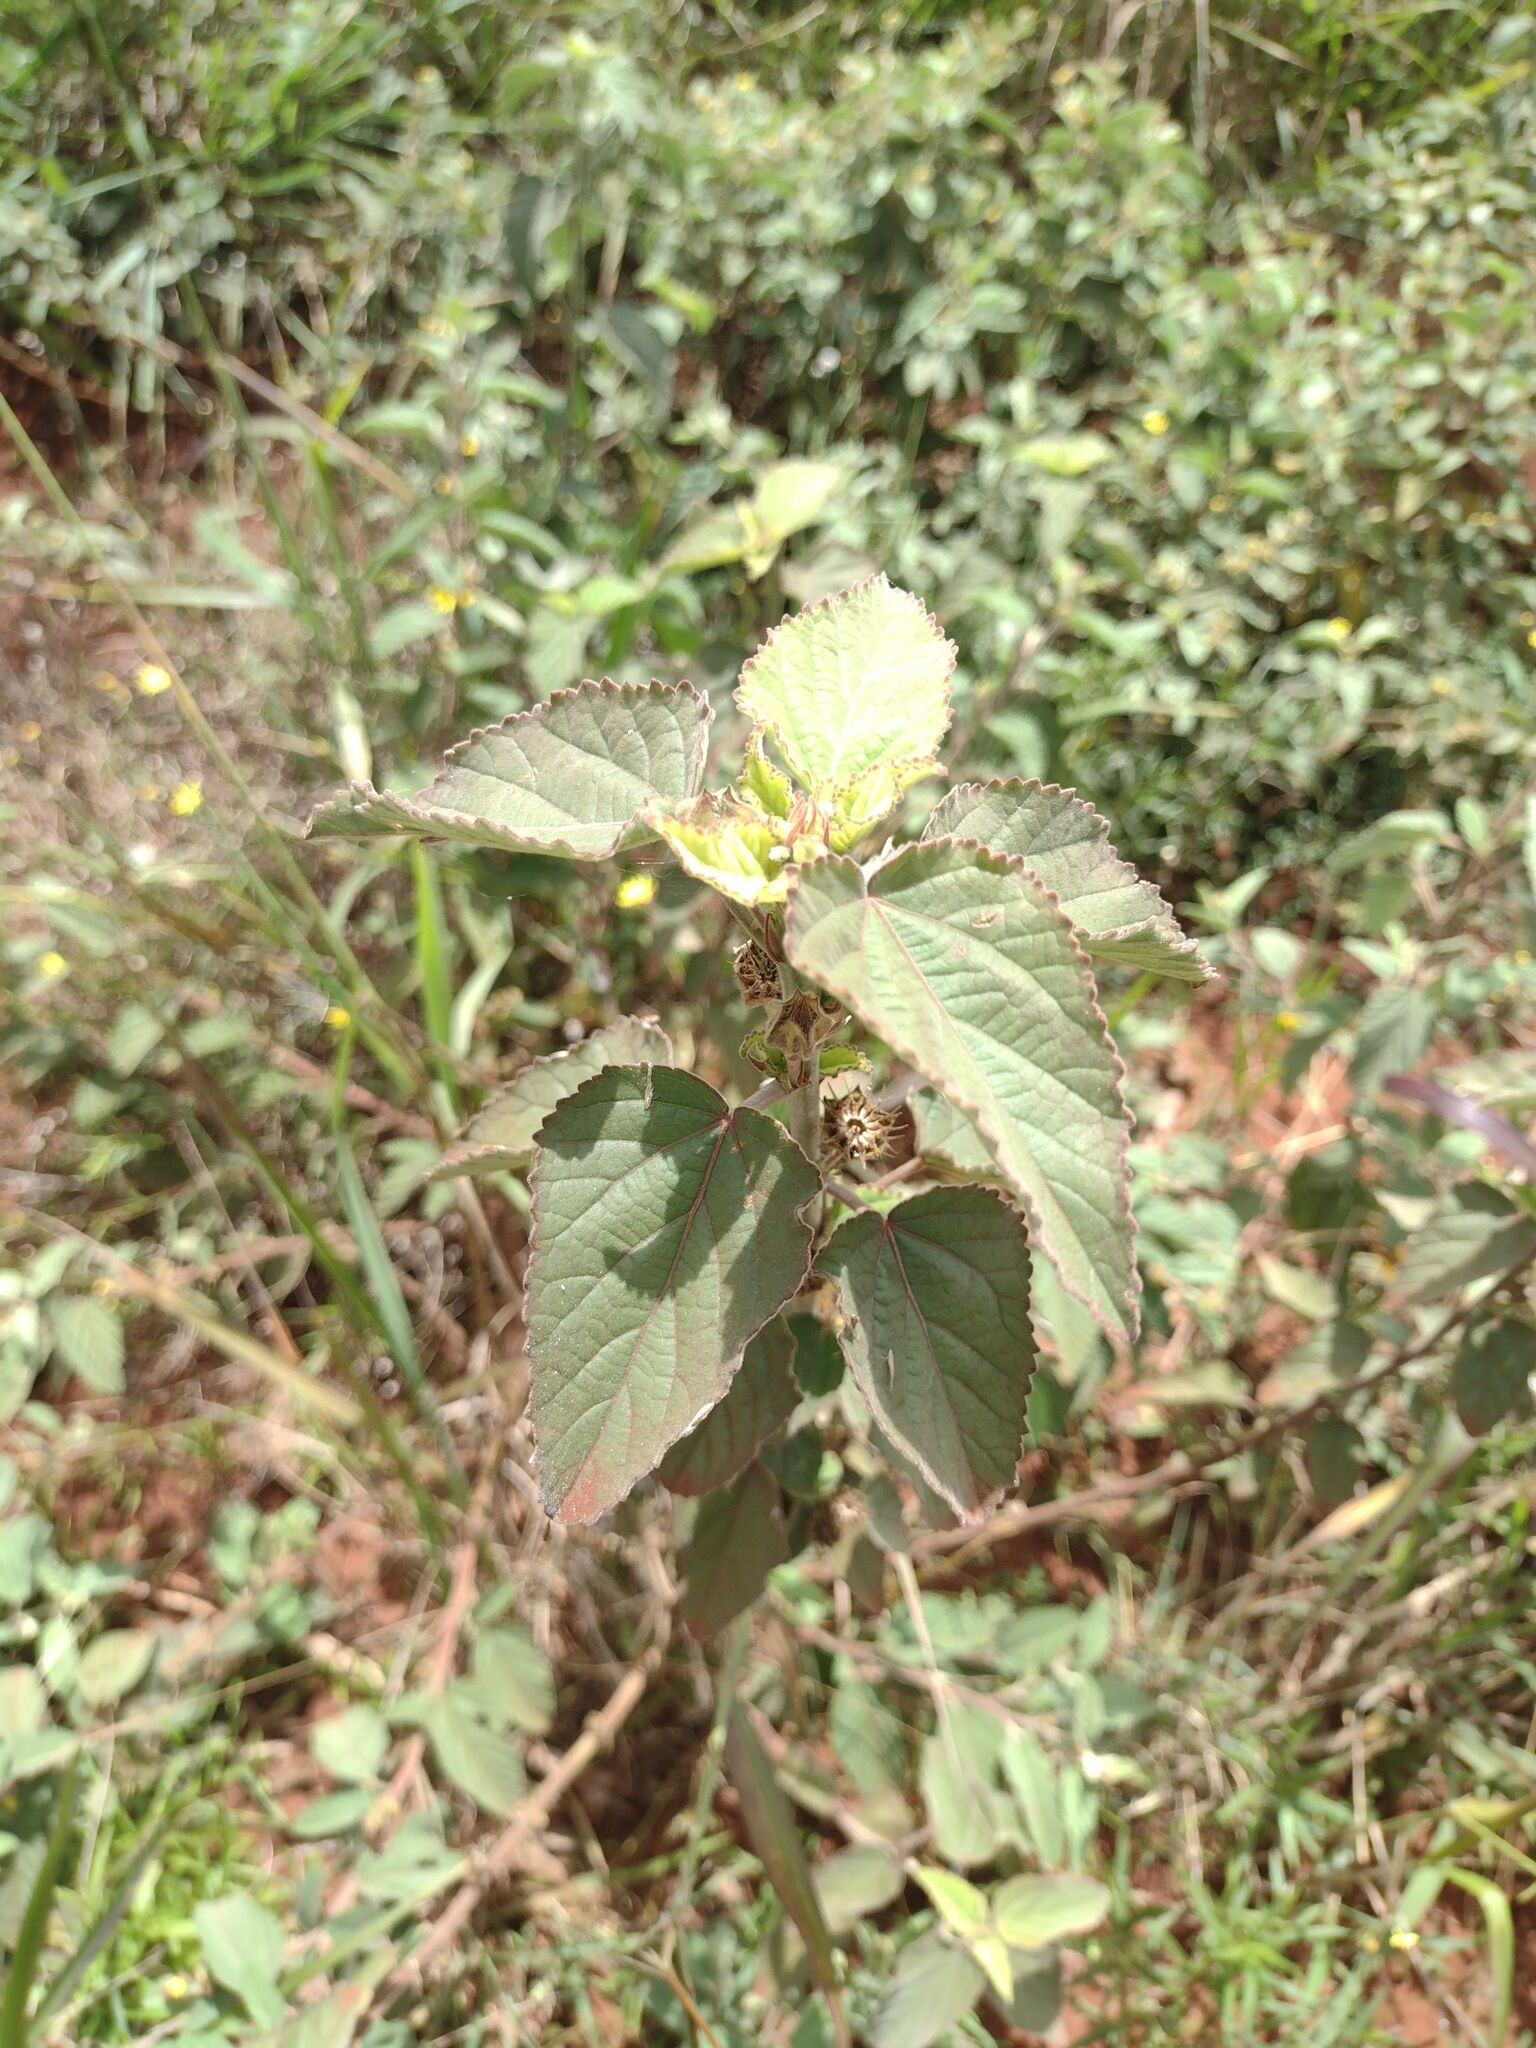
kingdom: Plantae
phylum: Tracheophyta
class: Magnoliopsida
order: Malvales
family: Malvaceae
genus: Sida
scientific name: Sida cordifolia
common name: Ilima
